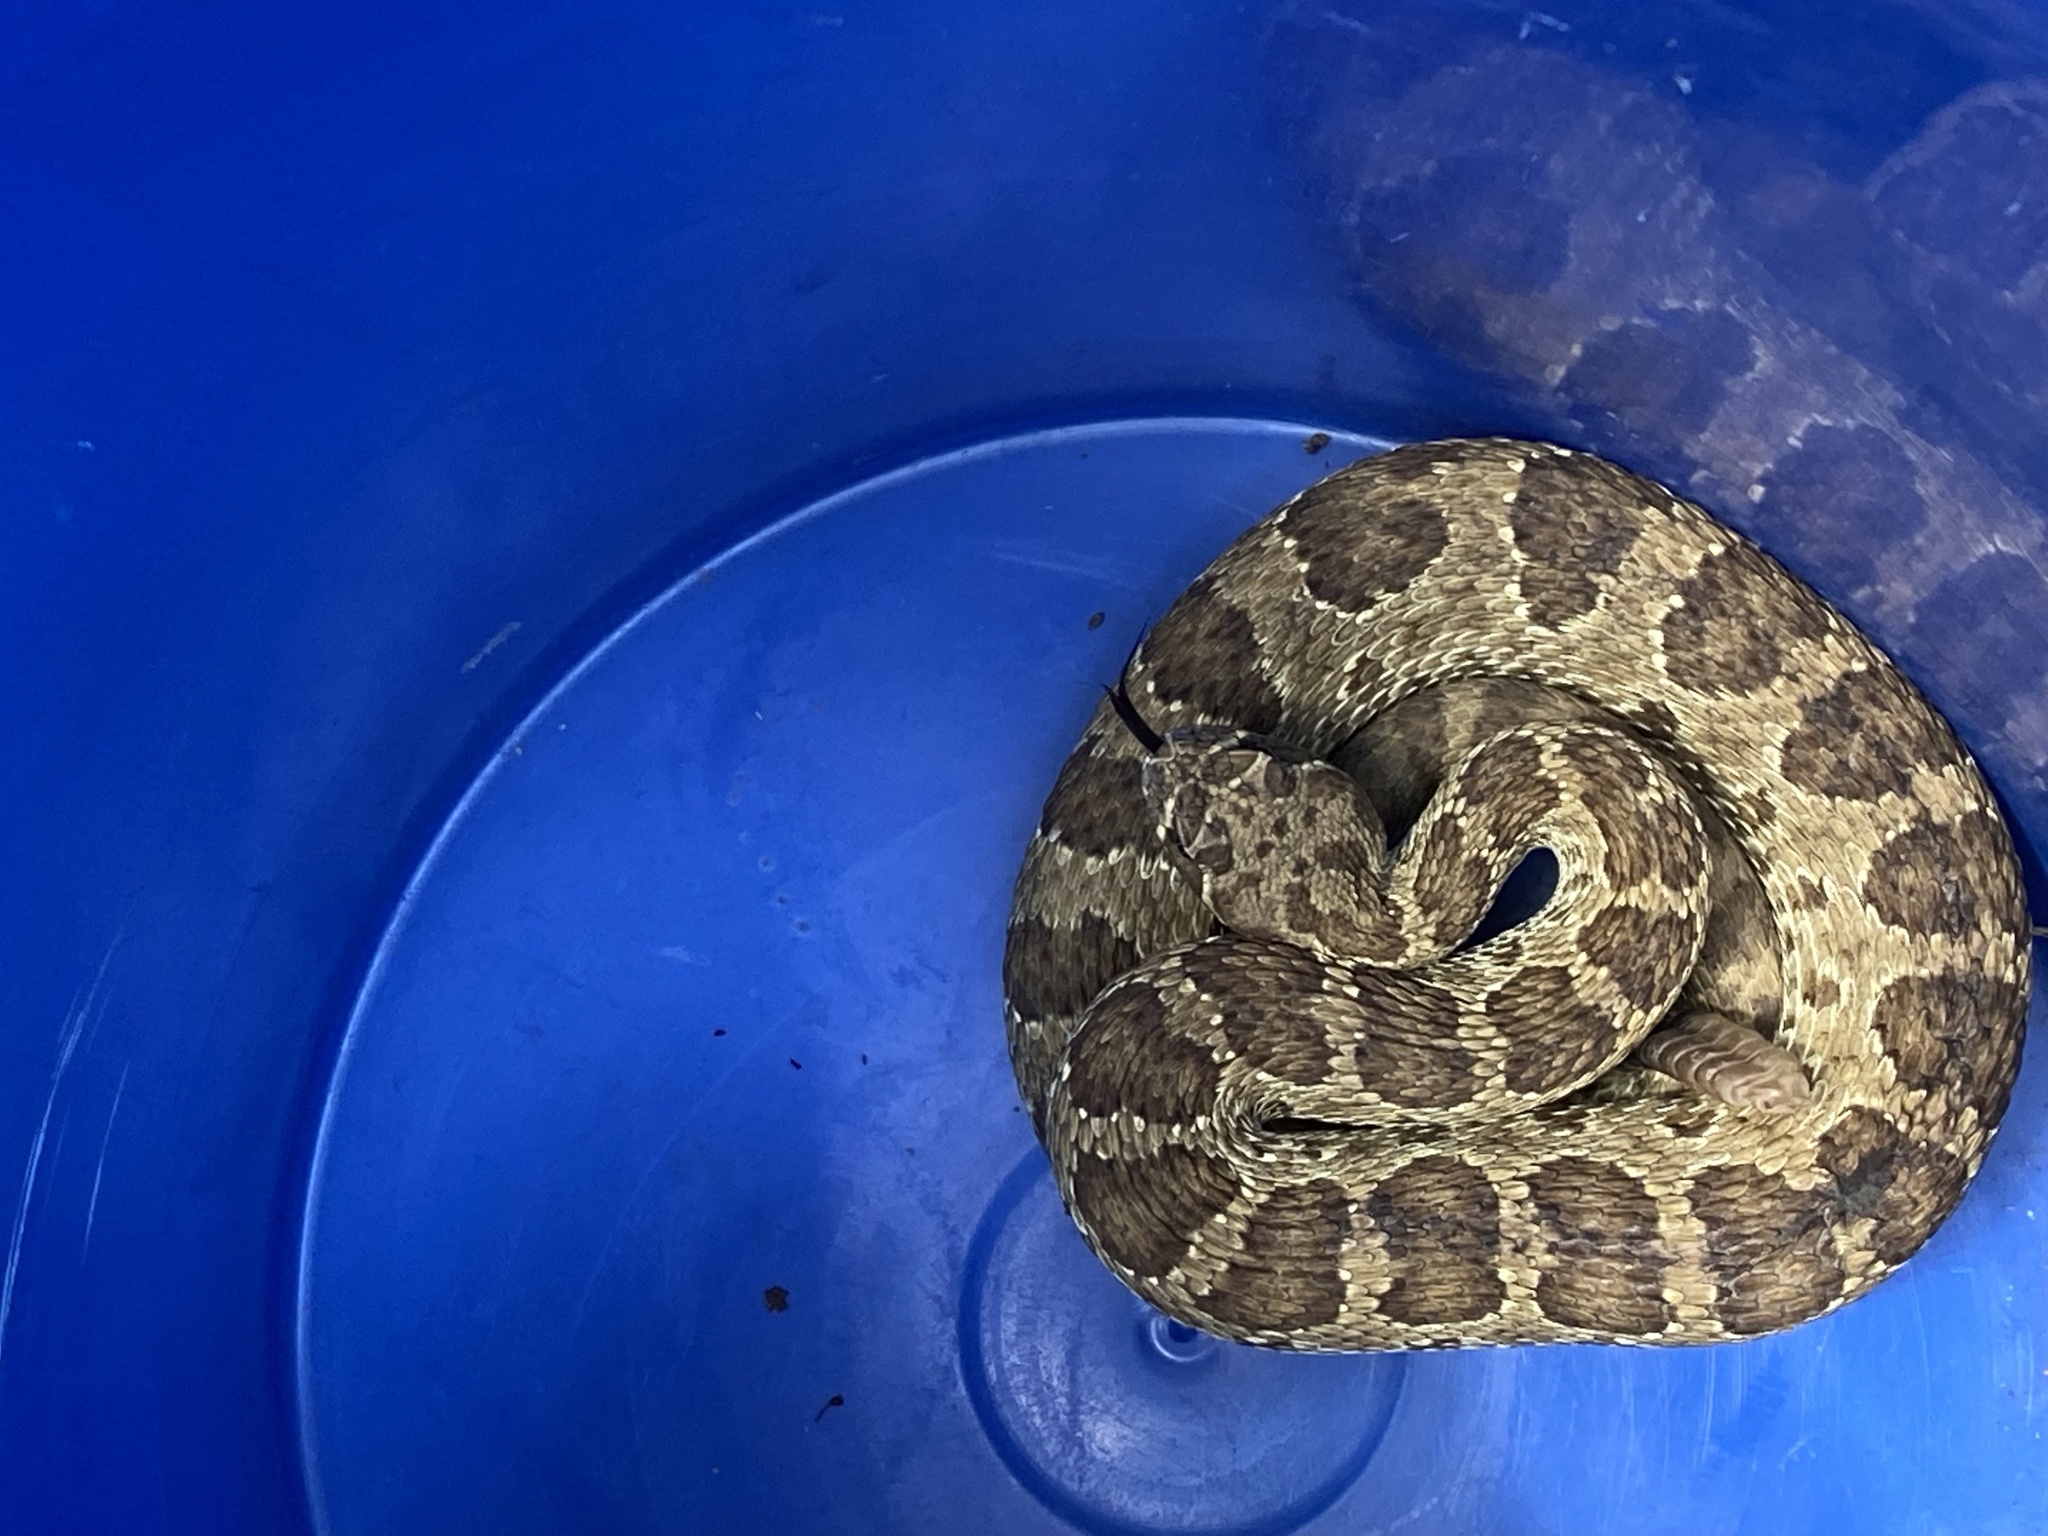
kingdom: Animalia
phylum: Chordata
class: Squamata
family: Viperidae
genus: Crotalus
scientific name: Crotalus viridis
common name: Prairie rattlesnake
